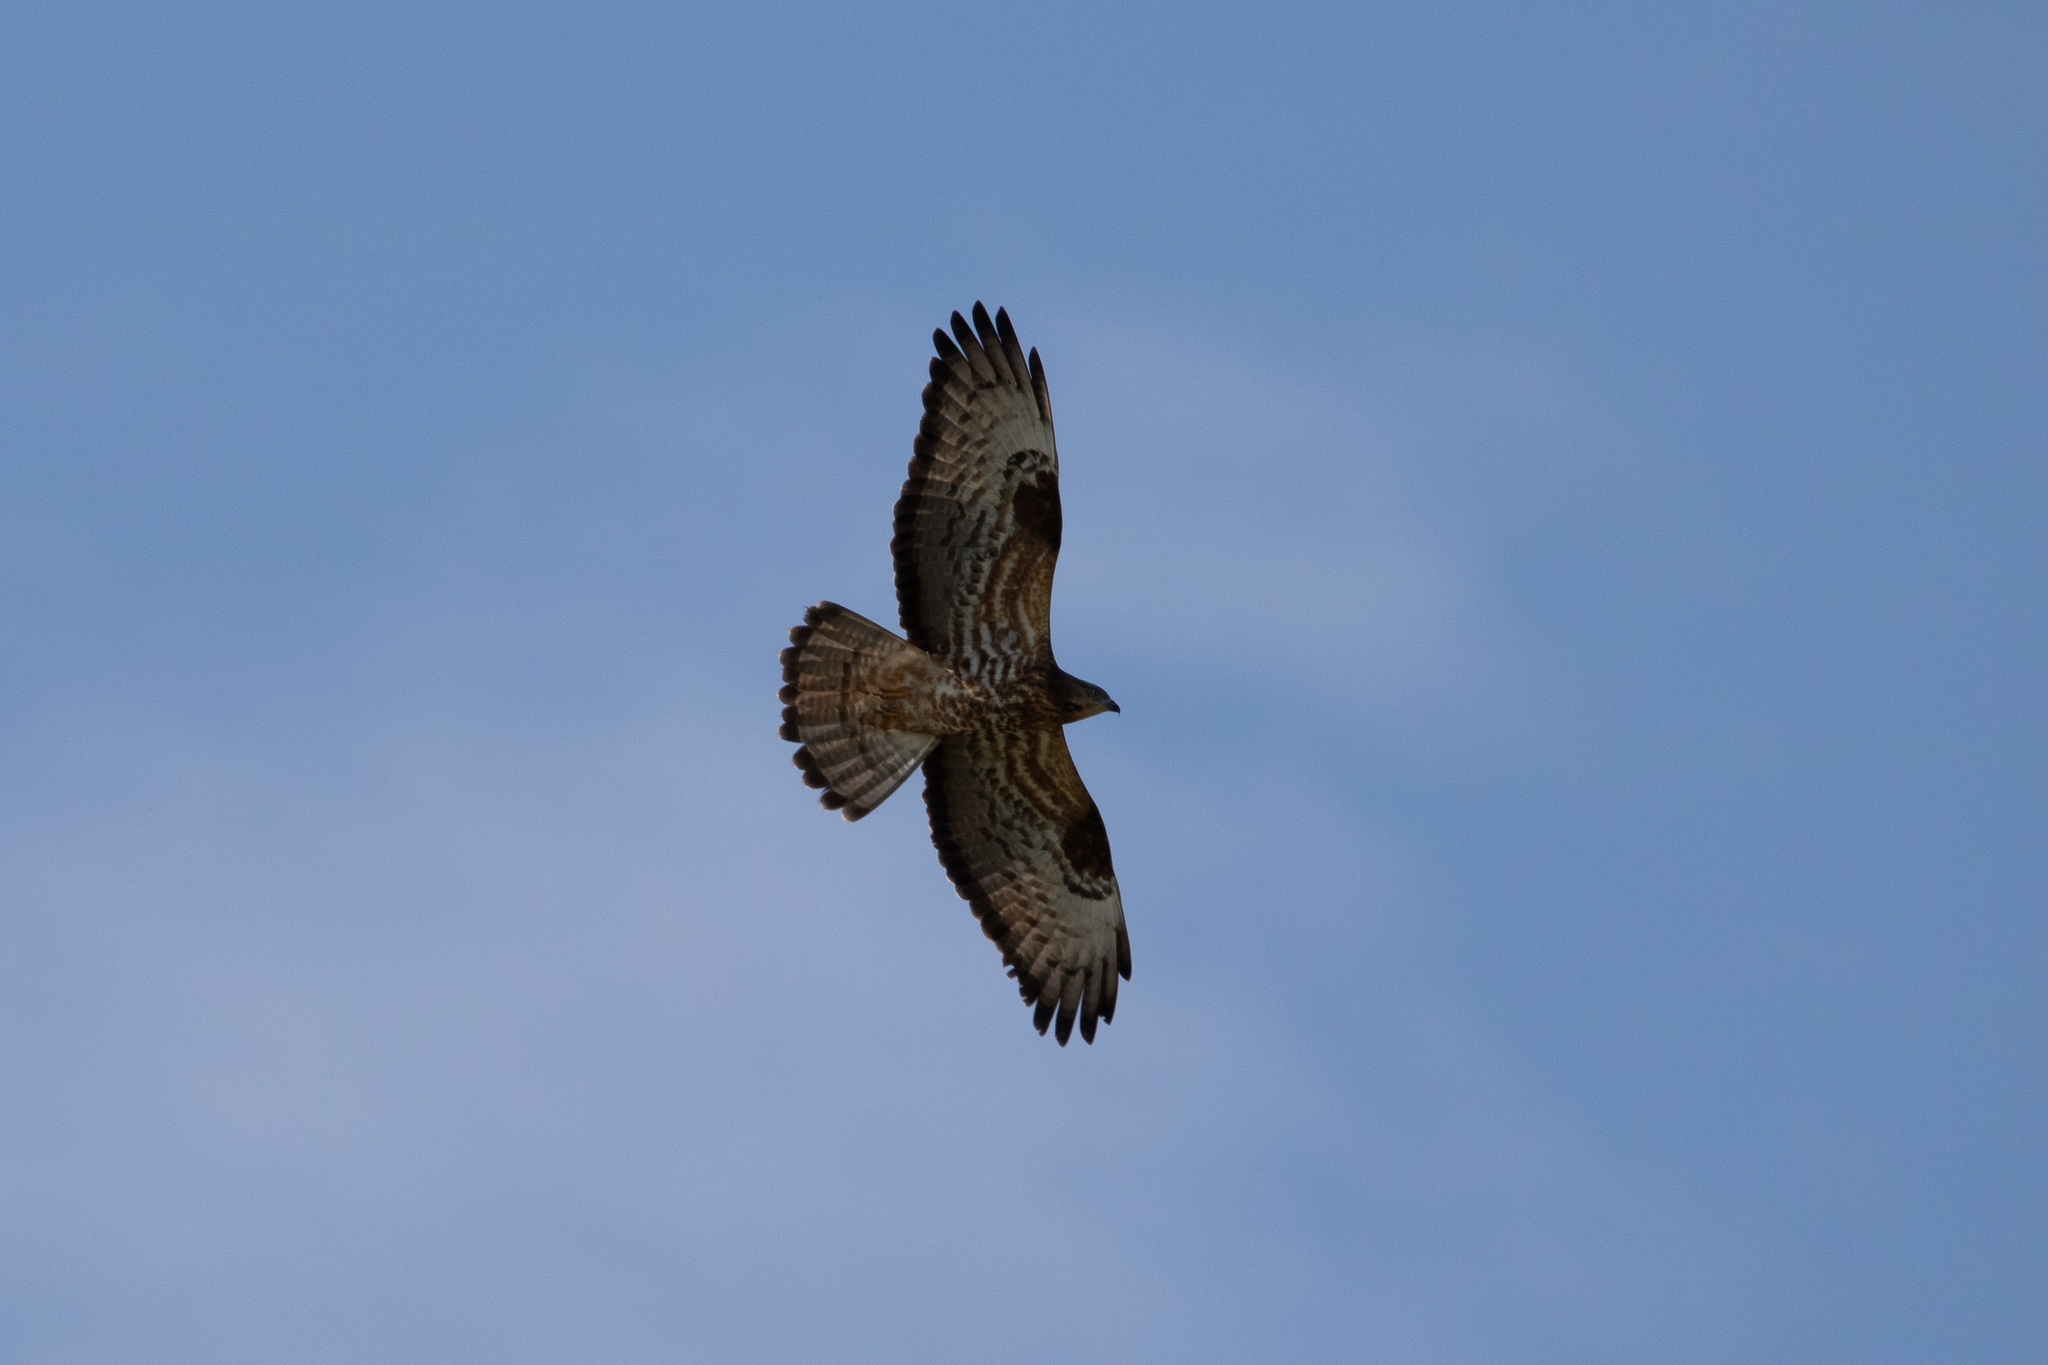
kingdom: Animalia
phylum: Chordata
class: Aves
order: Accipitriformes
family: Accipitridae
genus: Pernis
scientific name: Pernis apivorus
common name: European honey buzzard
